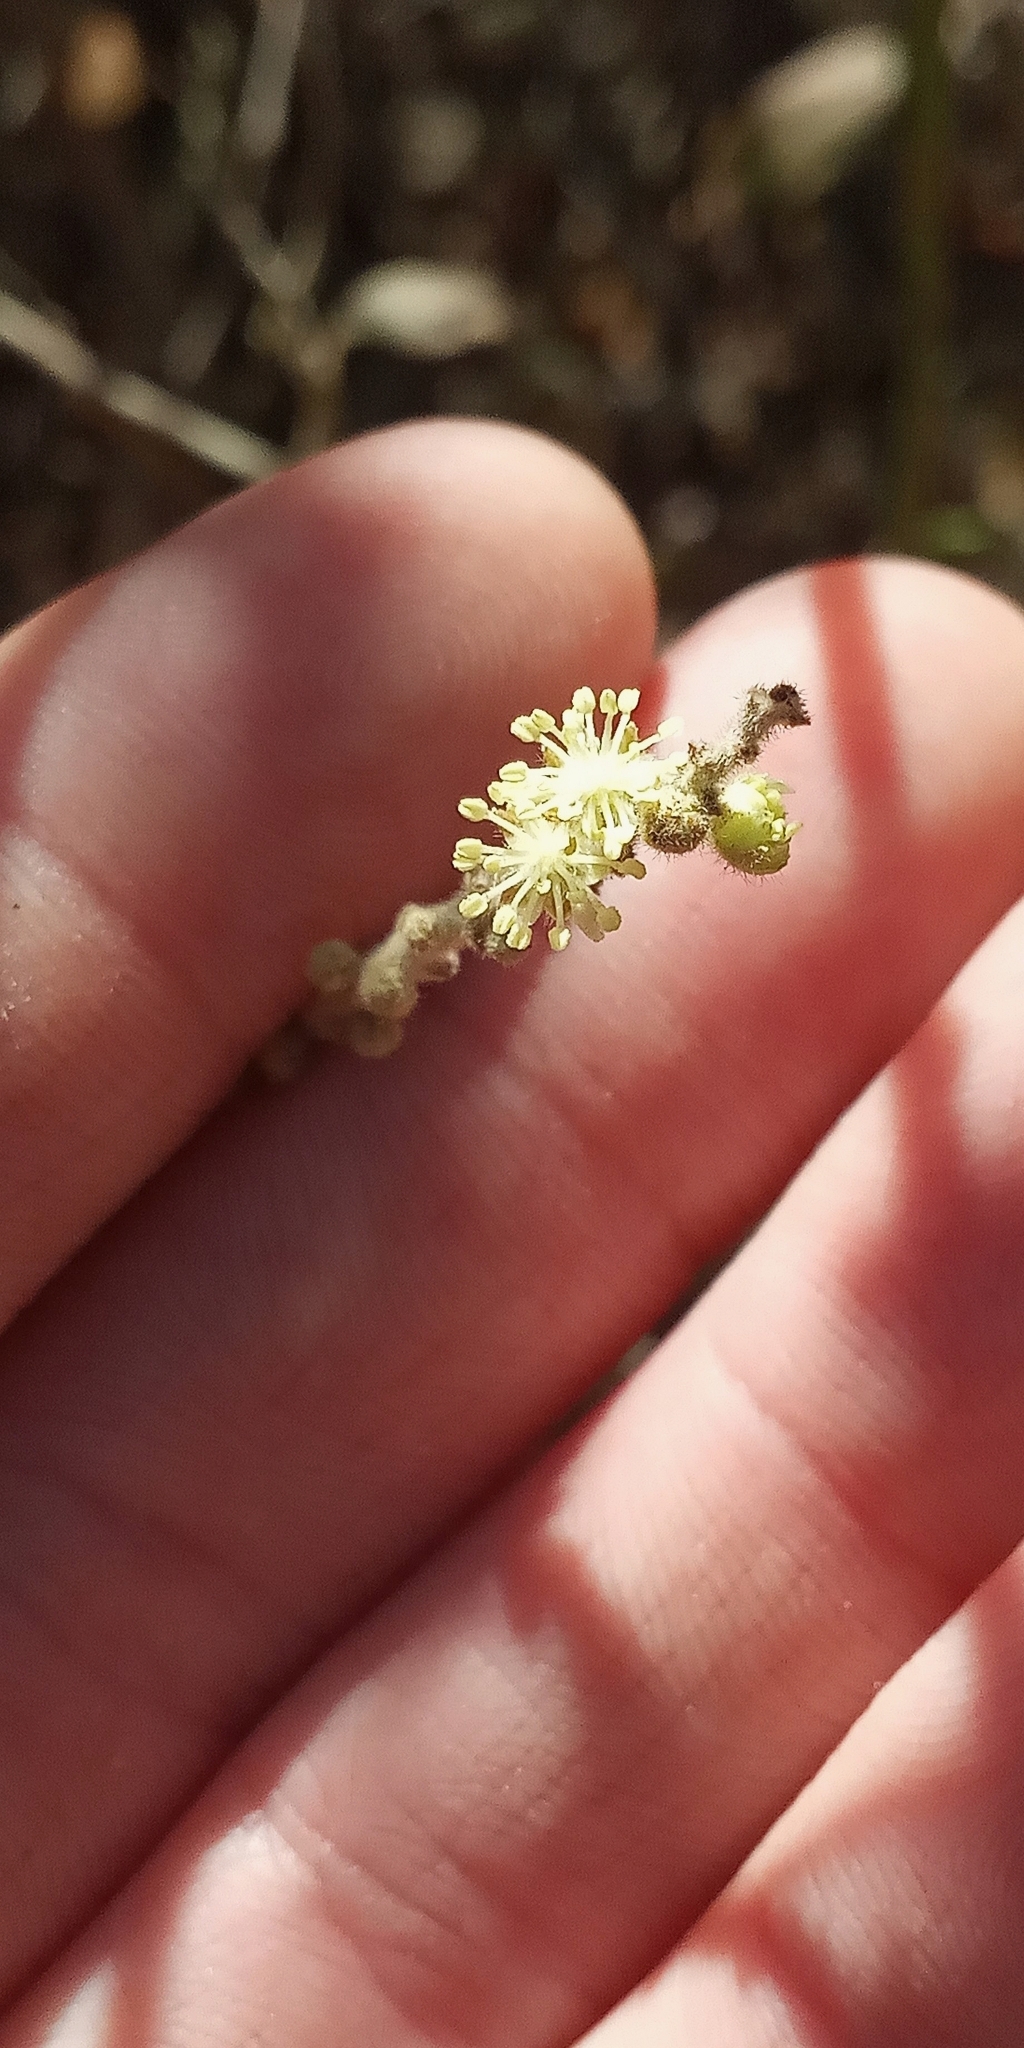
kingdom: Plantae
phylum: Tracheophyta
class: Magnoliopsida
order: Malpighiales
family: Euphorbiaceae
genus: Croton
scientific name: Croton lachnostachyus
